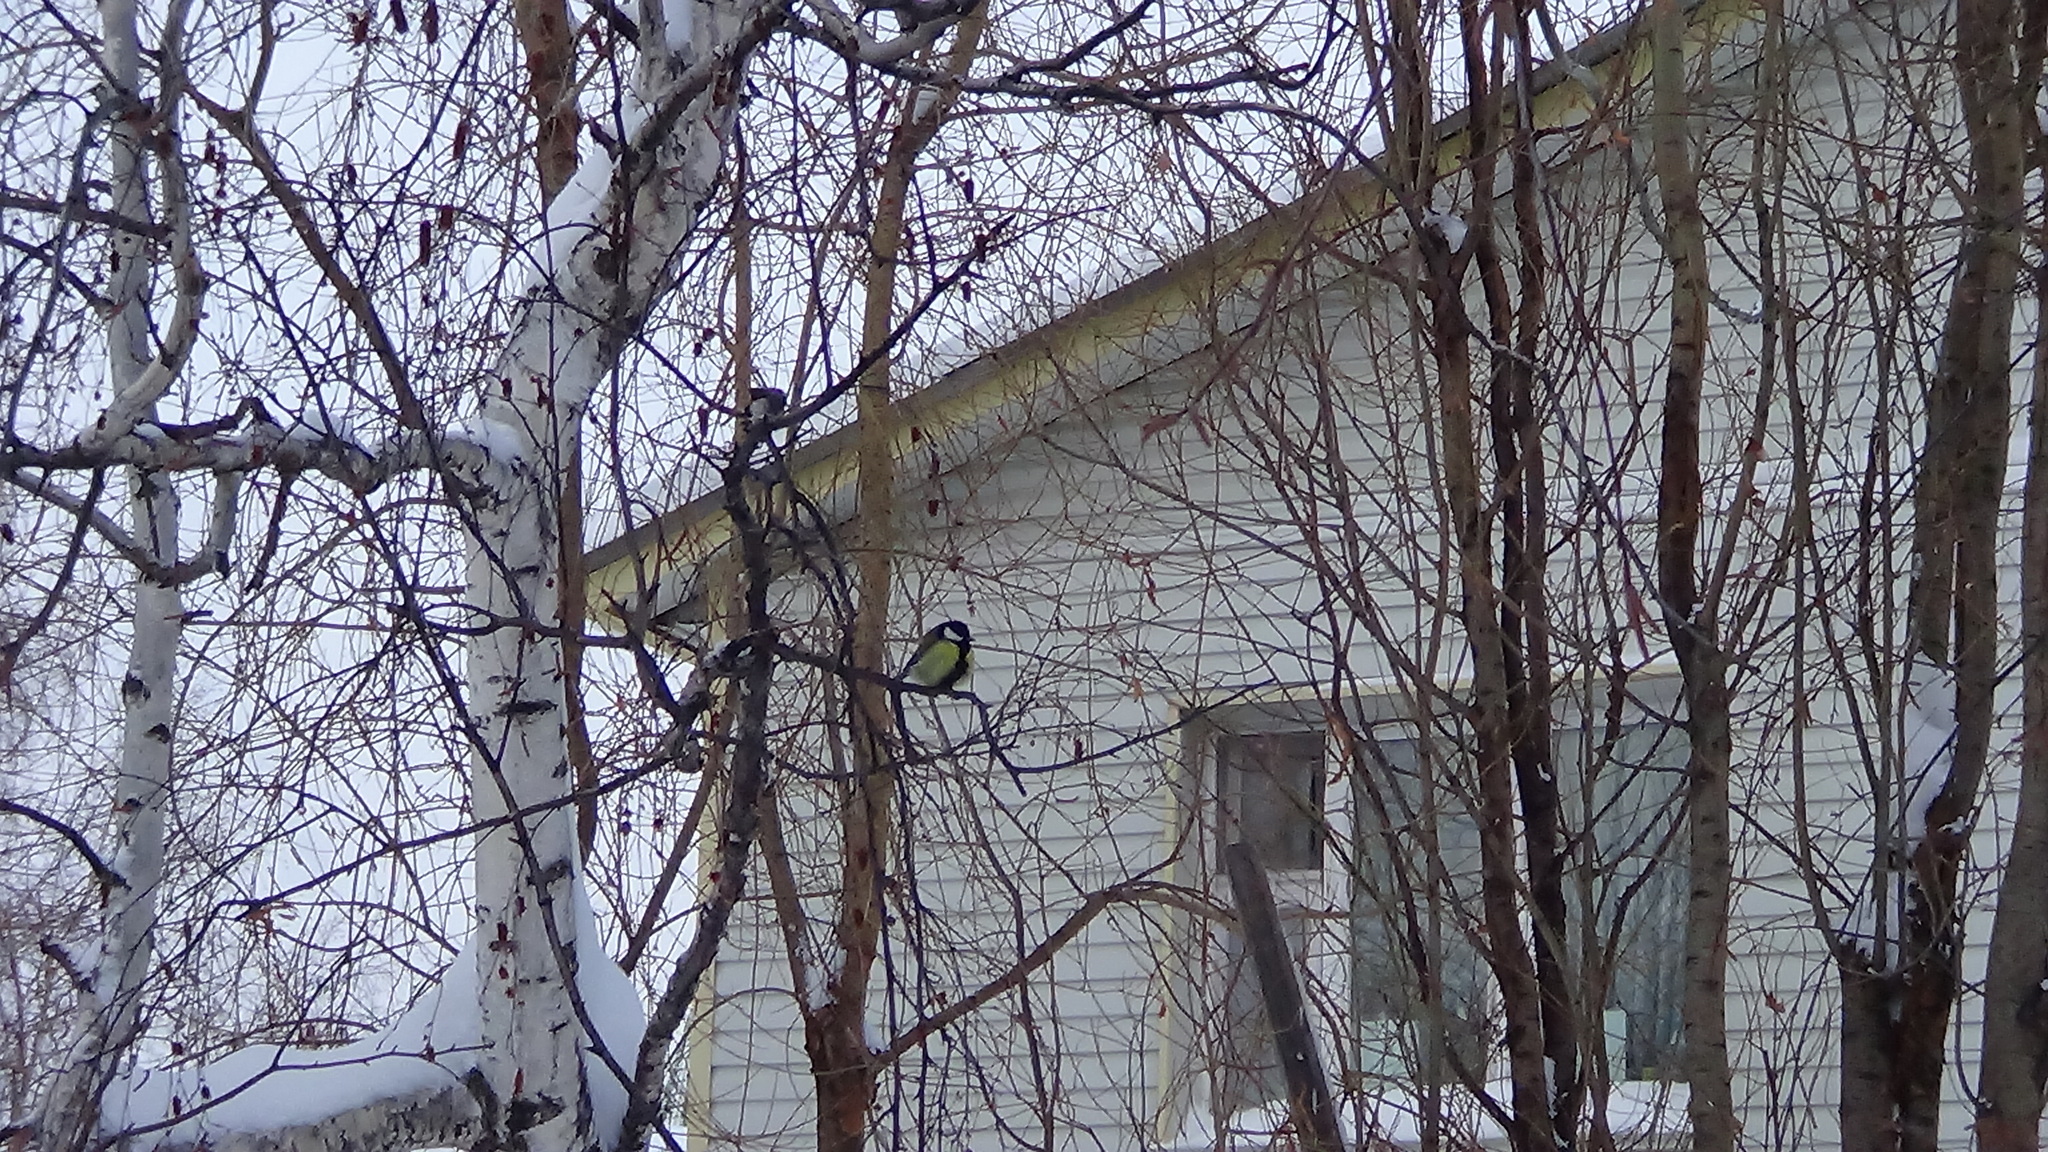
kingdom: Animalia
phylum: Chordata
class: Aves
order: Passeriformes
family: Paridae
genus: Parus
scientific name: Parus major
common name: Great tit
